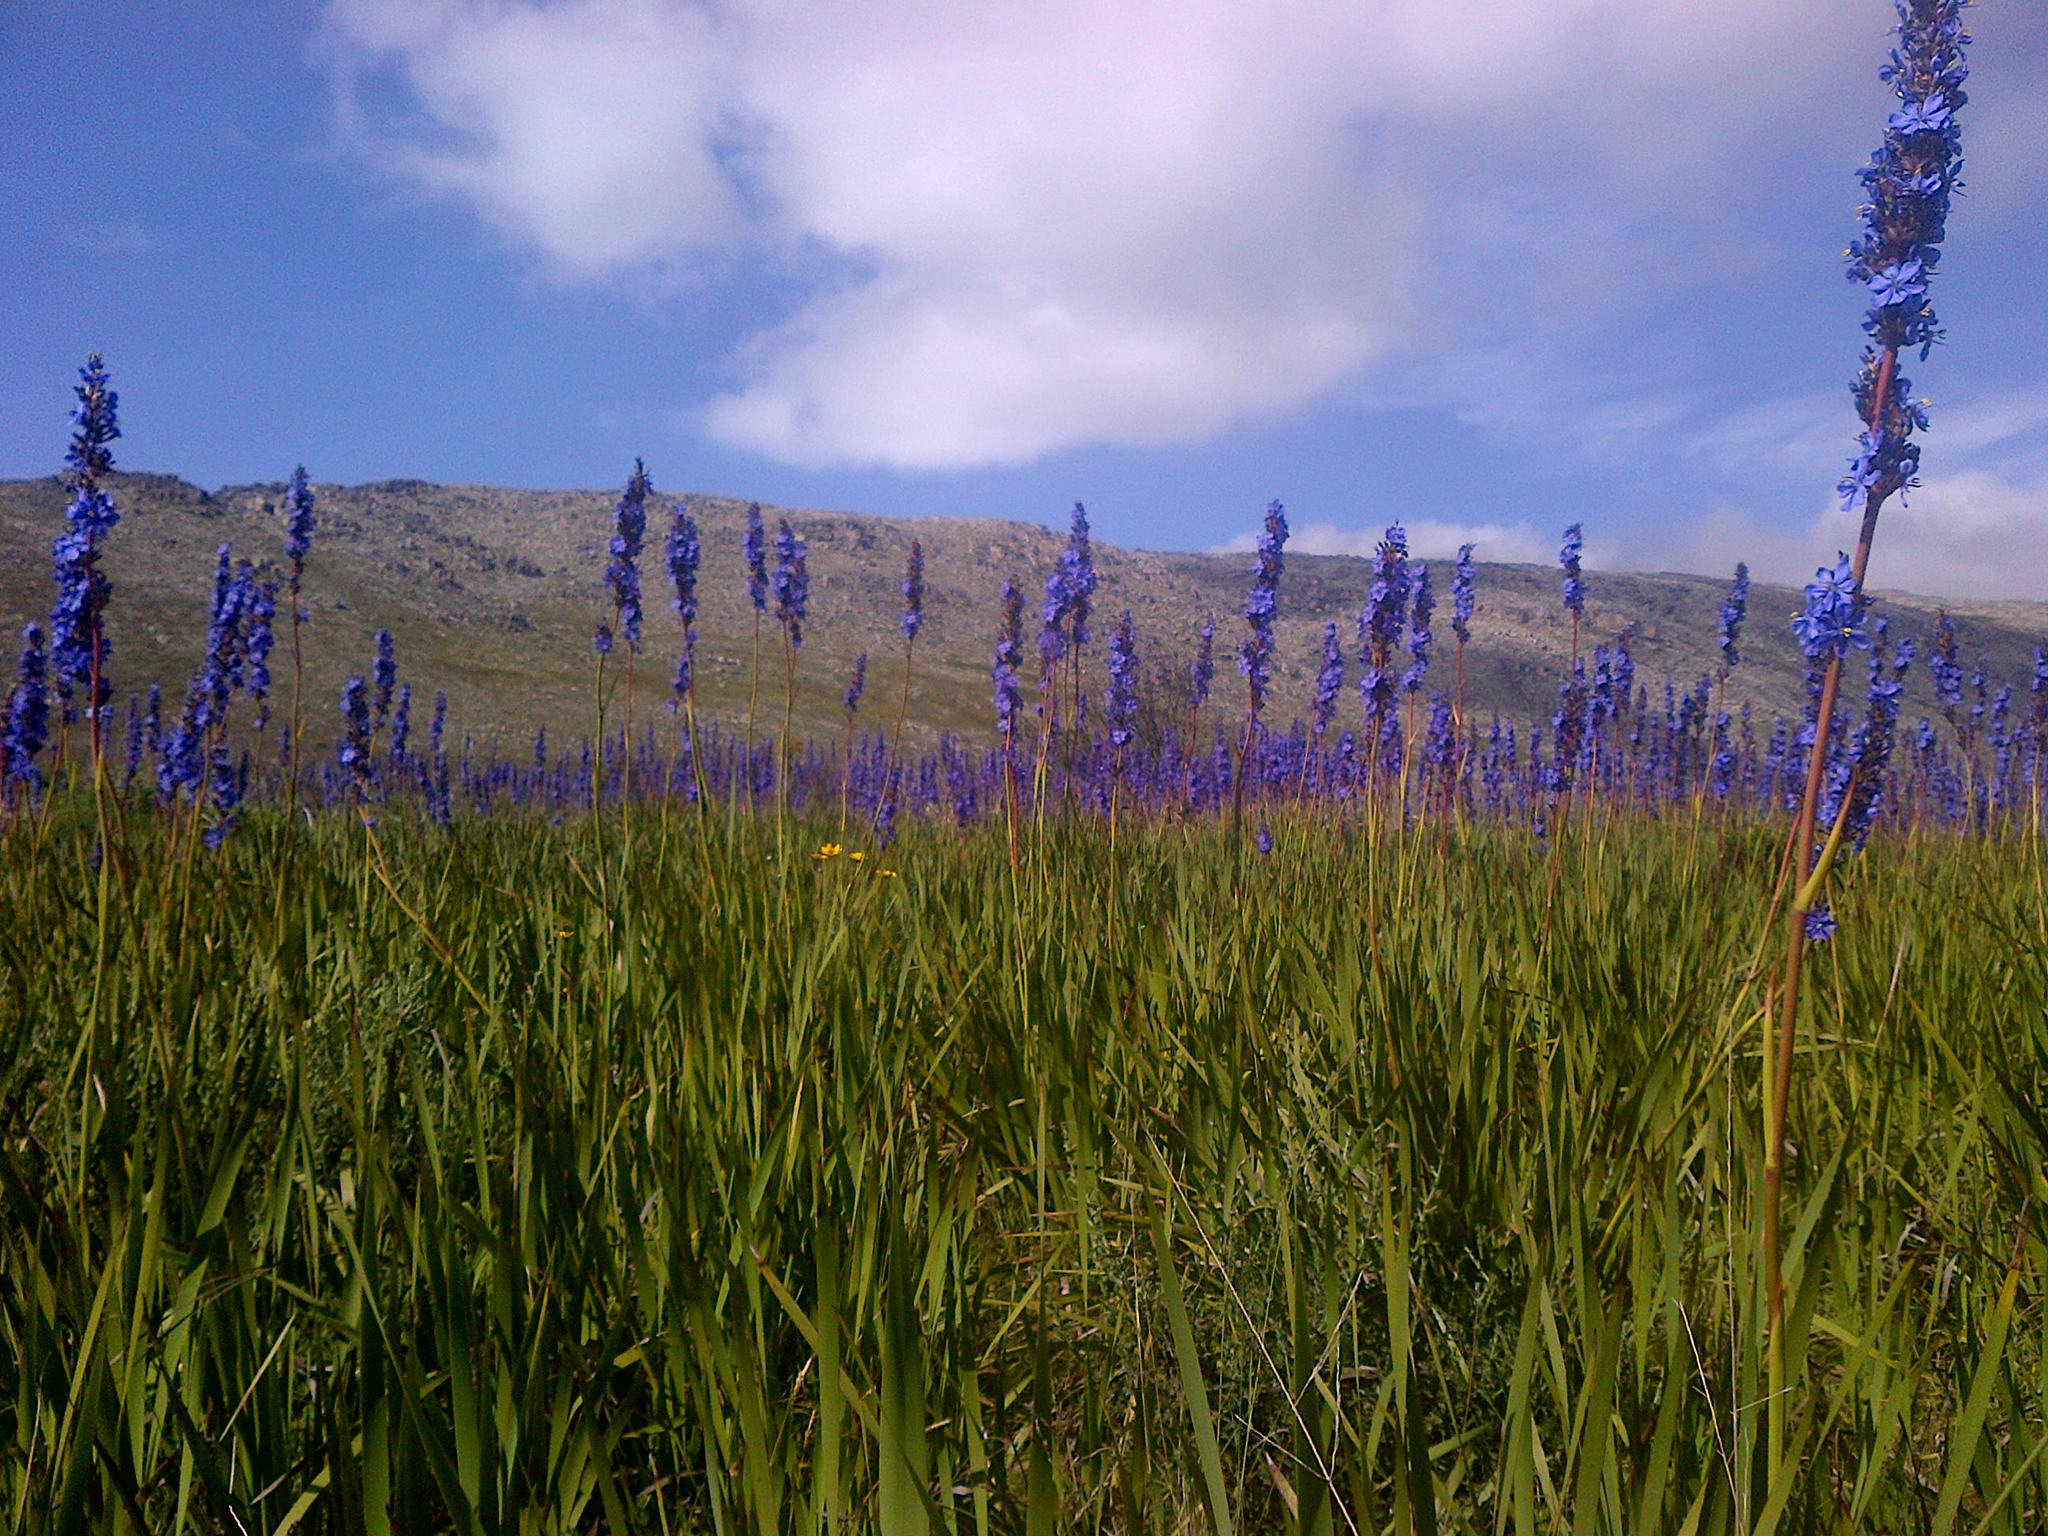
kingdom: Plantae
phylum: Tracheophyta
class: Liliopsida
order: Asparagales
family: Iridaceae
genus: Aristea
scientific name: Aristea capitata
